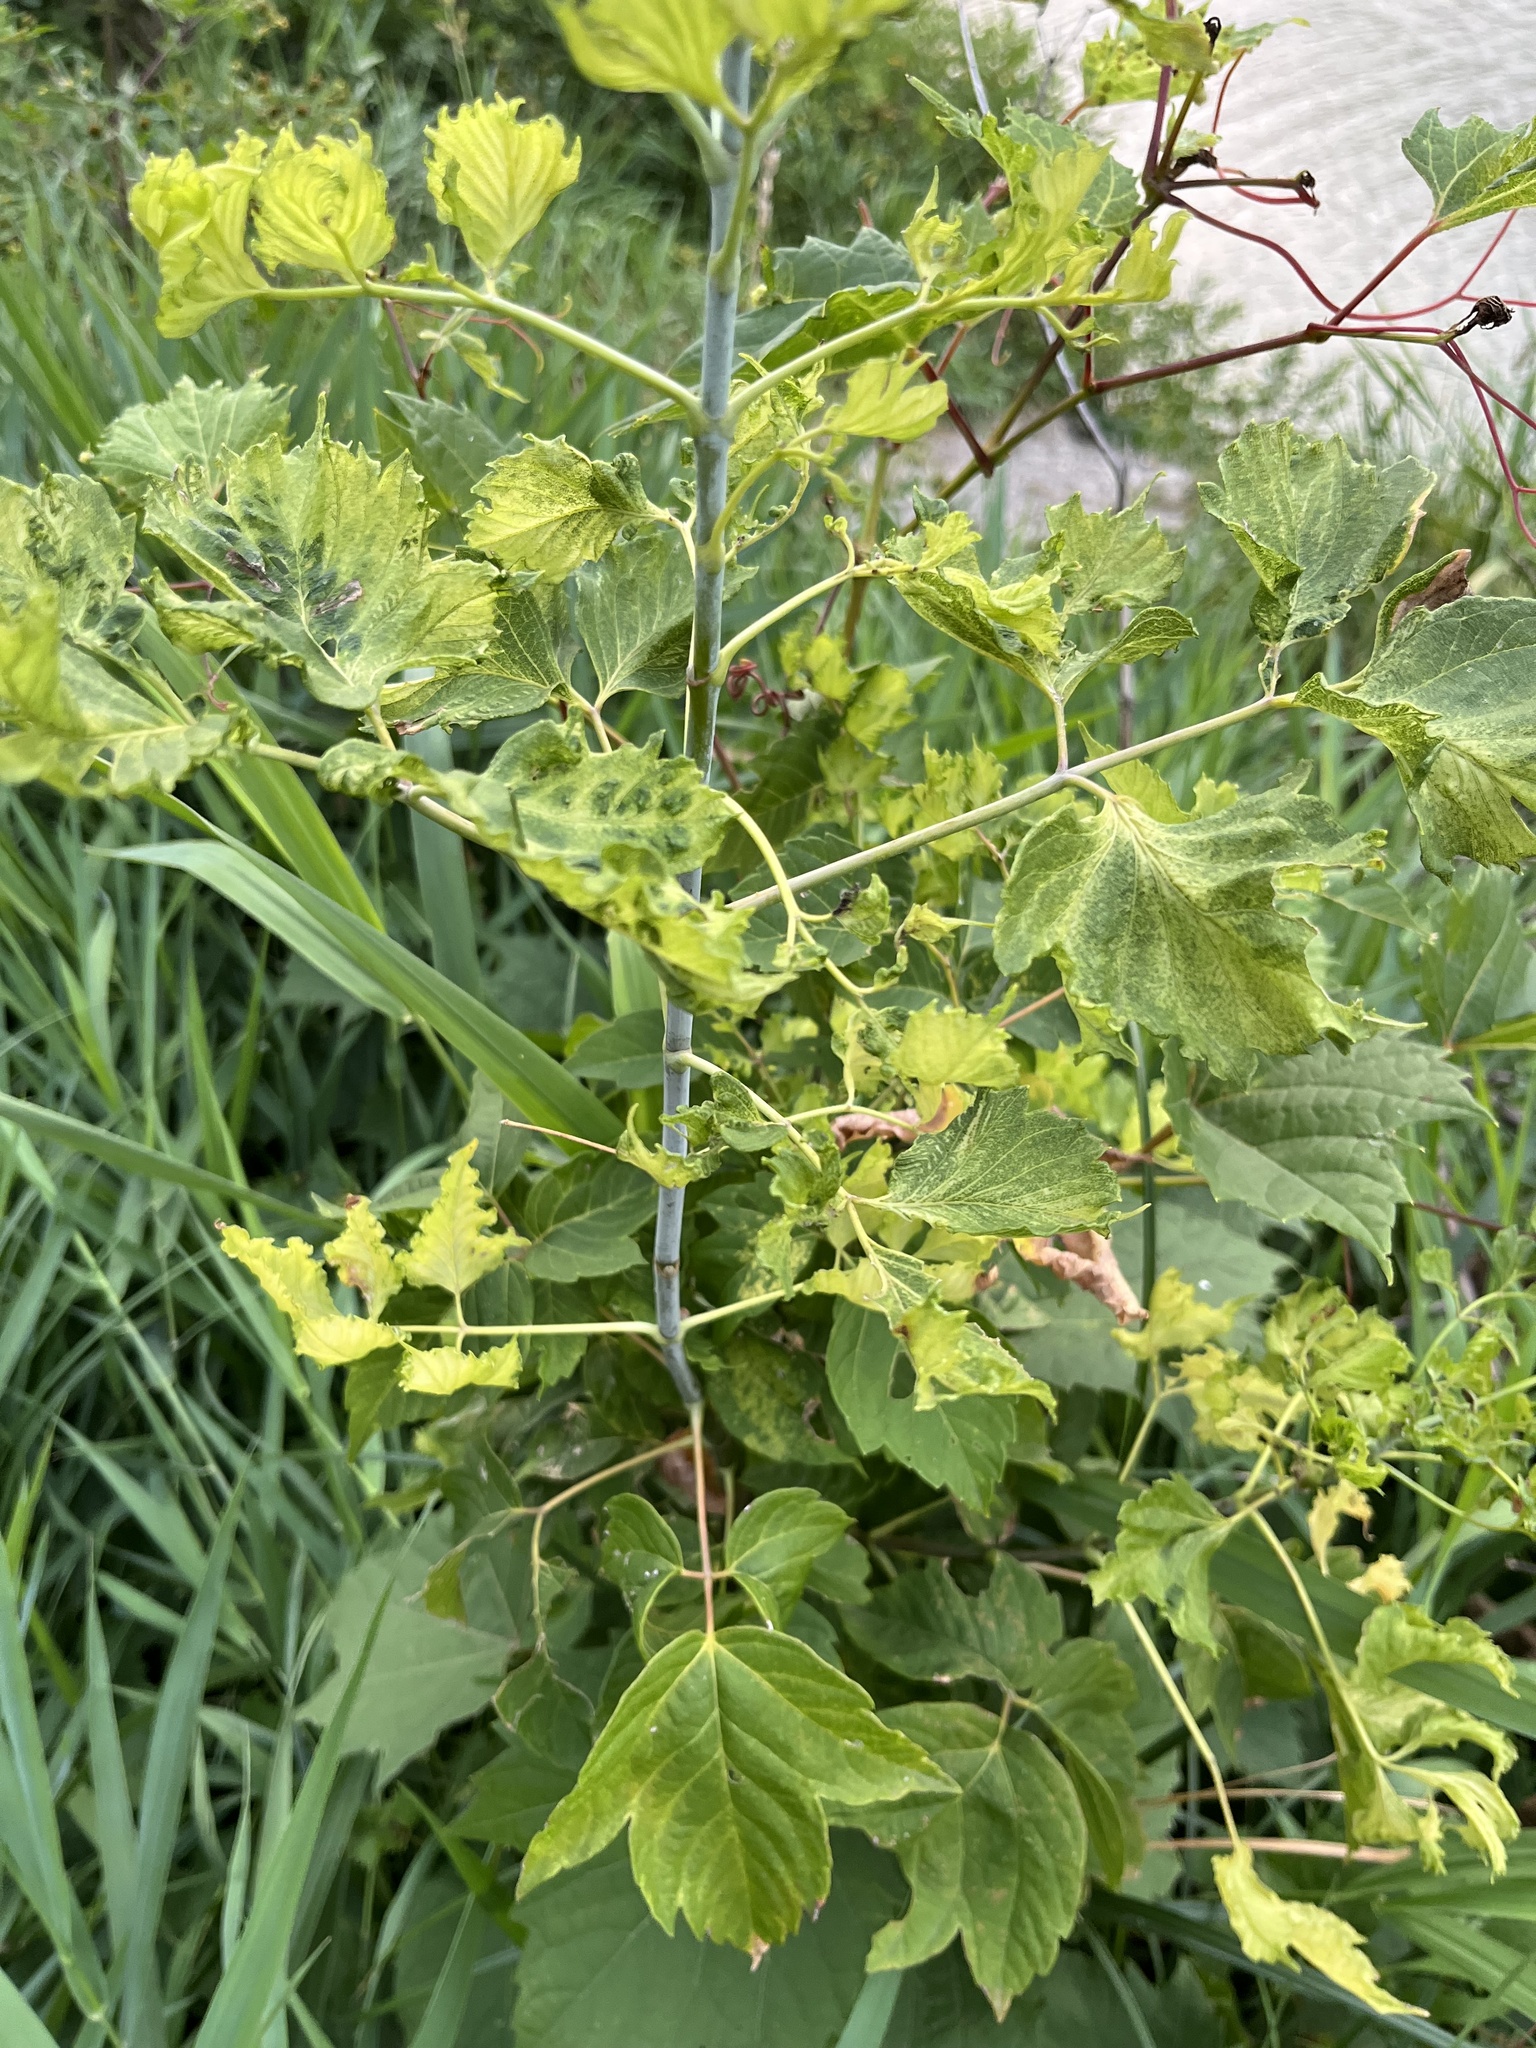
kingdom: Plantae
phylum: Tracheophyta
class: Magnoliopsida
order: Sapindales
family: Sapindaceae
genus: Acer
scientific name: Acer negundo
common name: Ashleaf maple
